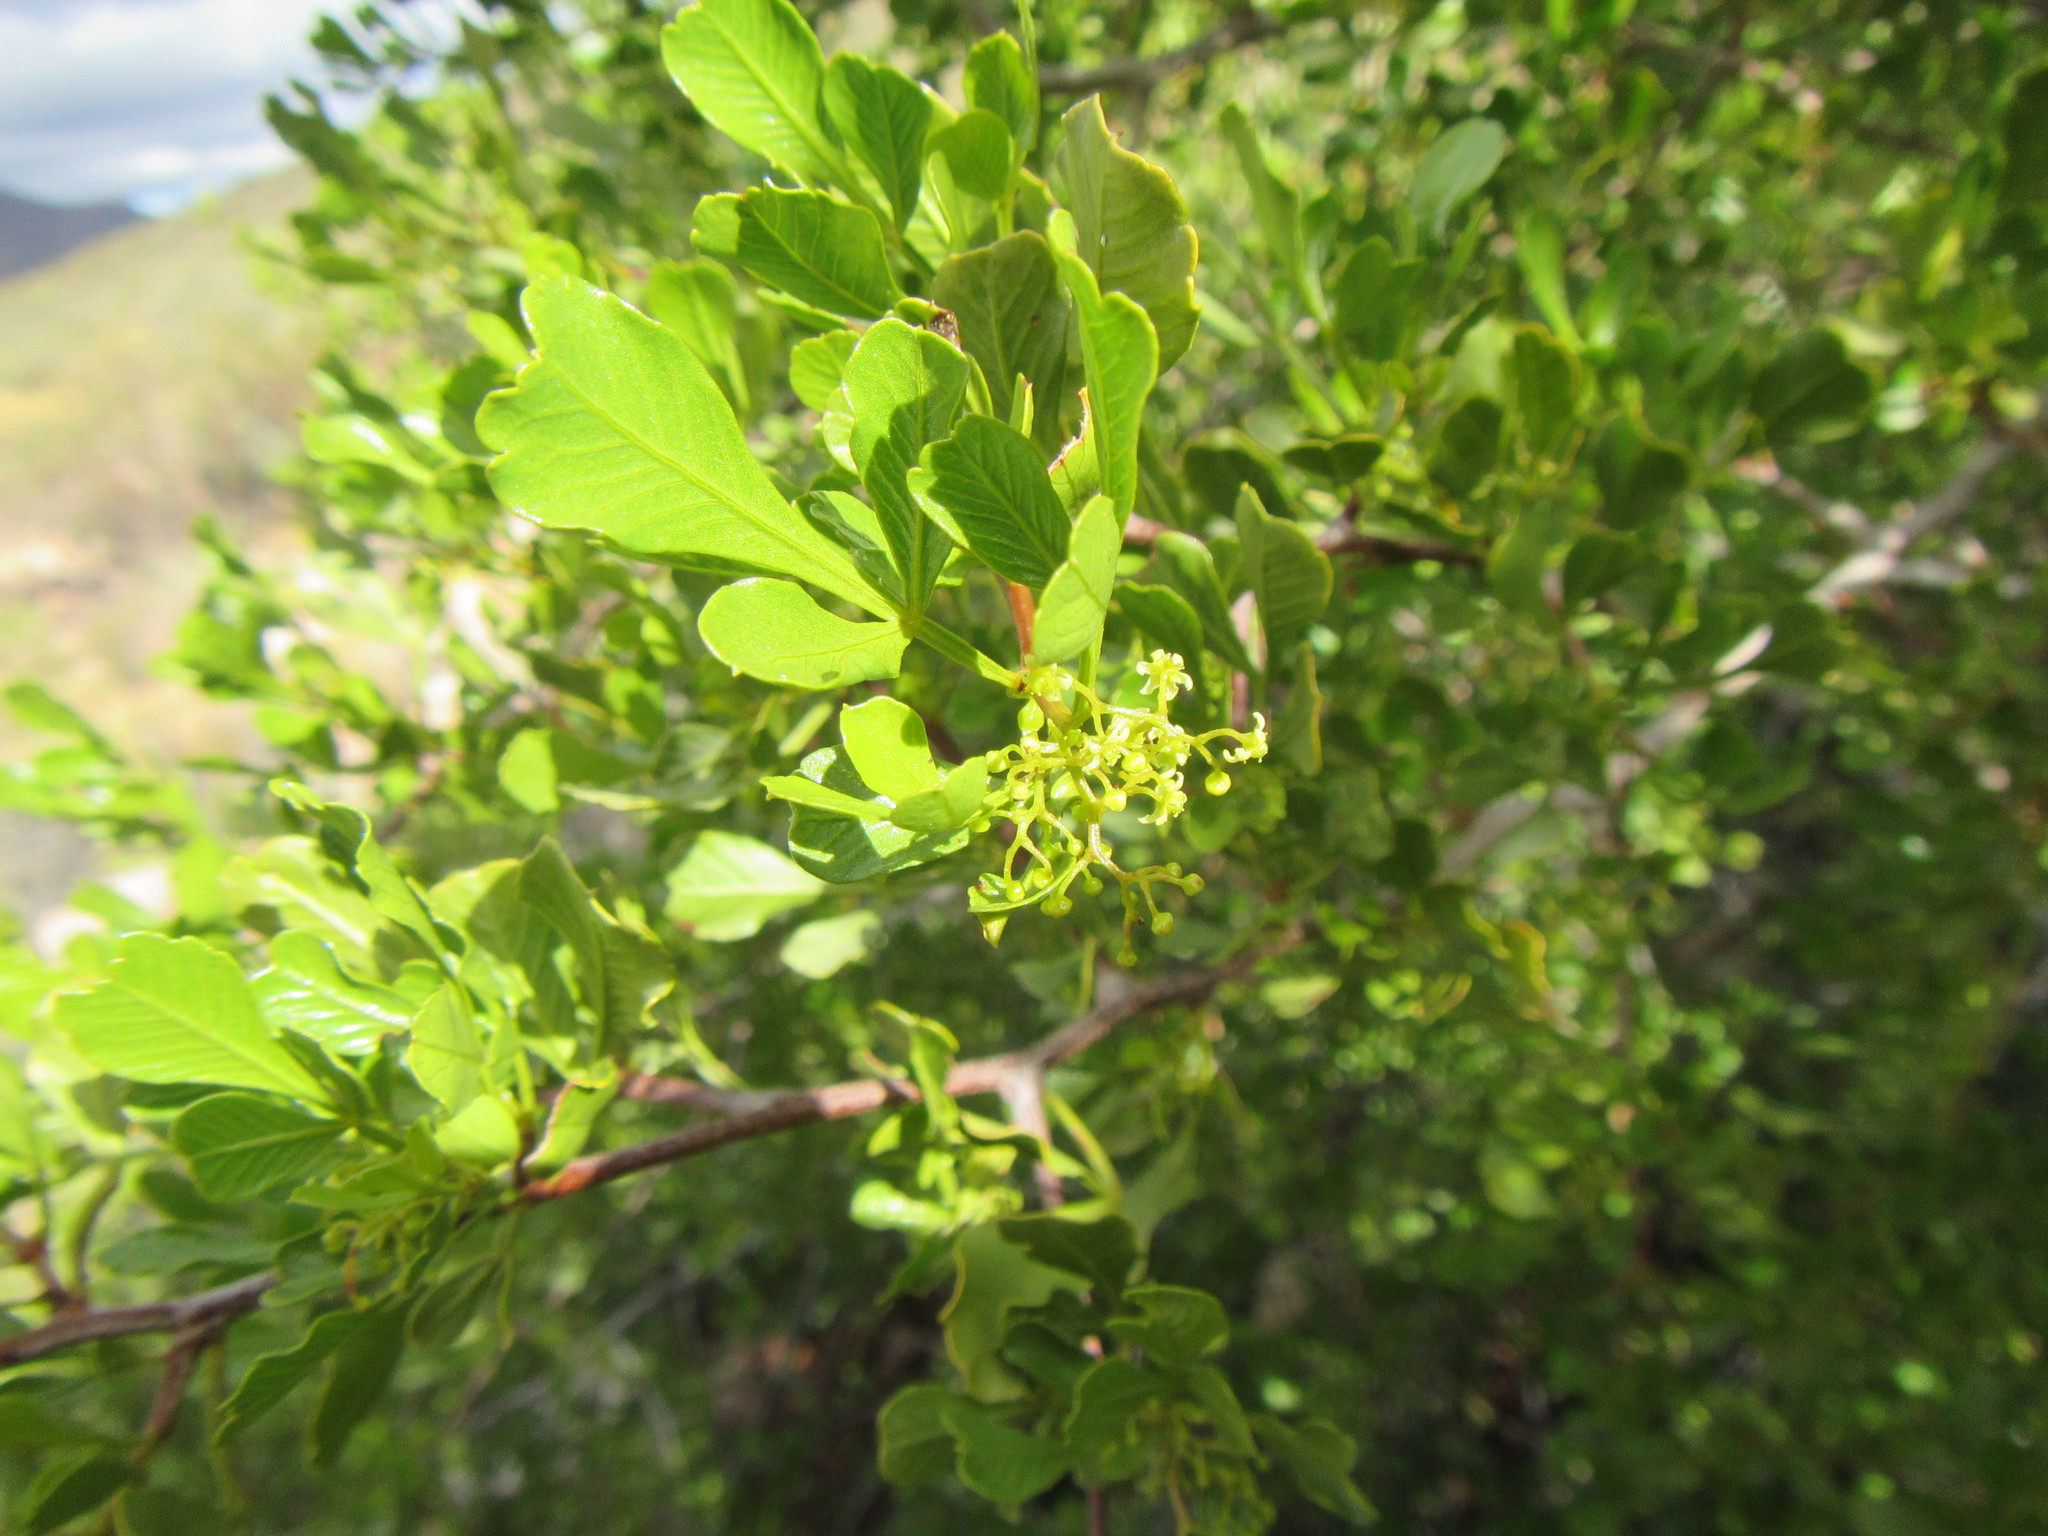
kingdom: Plantae
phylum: Tracheophyta
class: Magnoliopsida
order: Sapindales
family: Anacardiaceae
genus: Searsia
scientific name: Searsia undulata
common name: Namaqua kunibush
